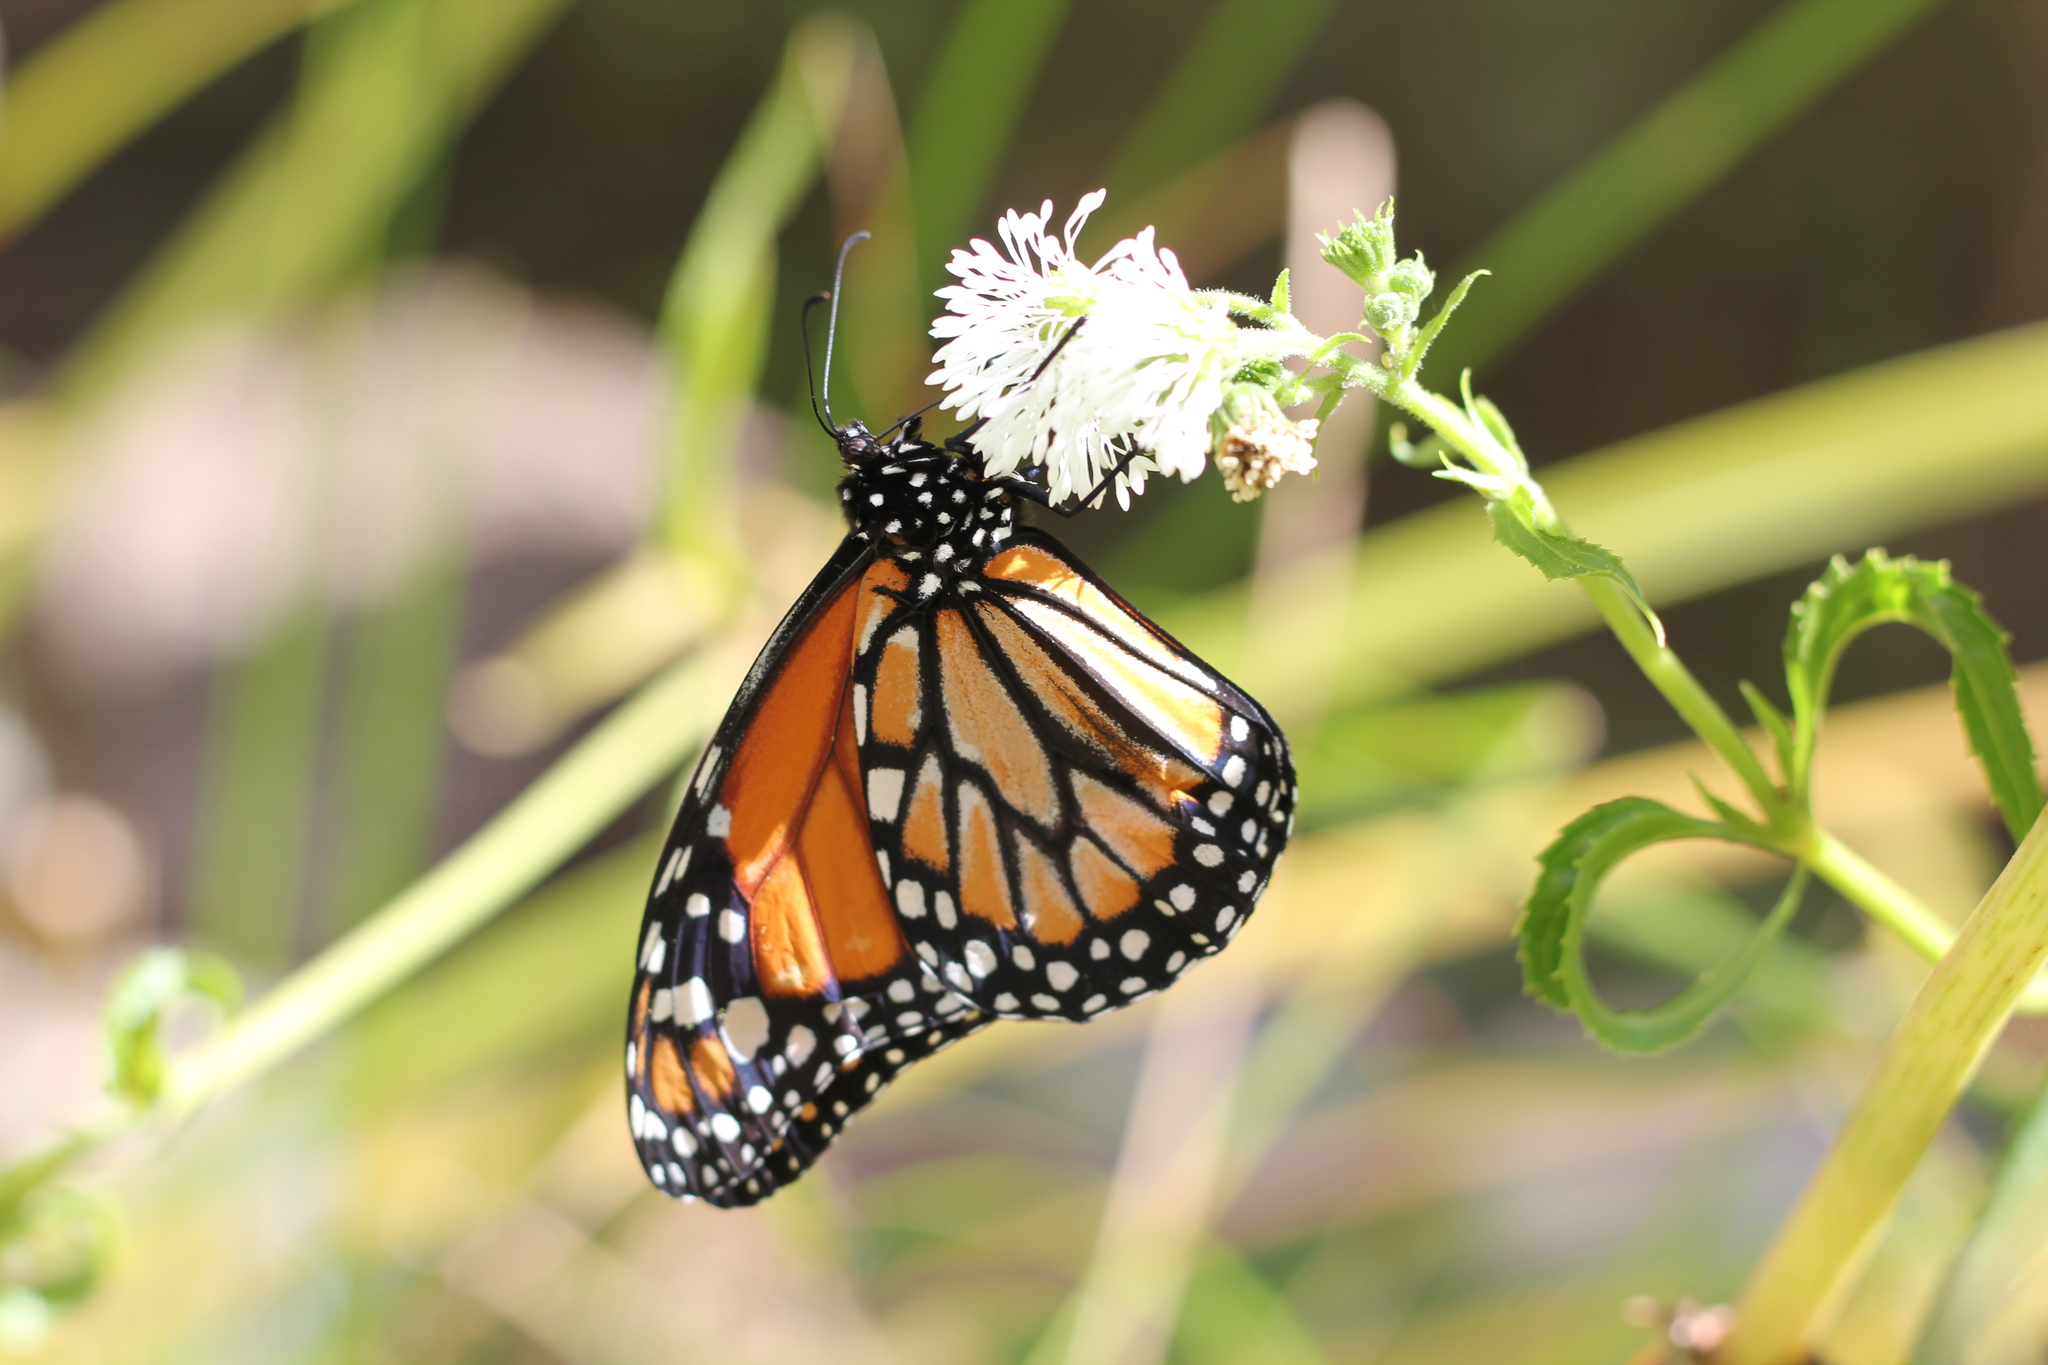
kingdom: Animalia
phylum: Arthropoda
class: Insecta
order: Lepidoptera
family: Nymphalidae
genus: Danaus
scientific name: Danaus erippus
